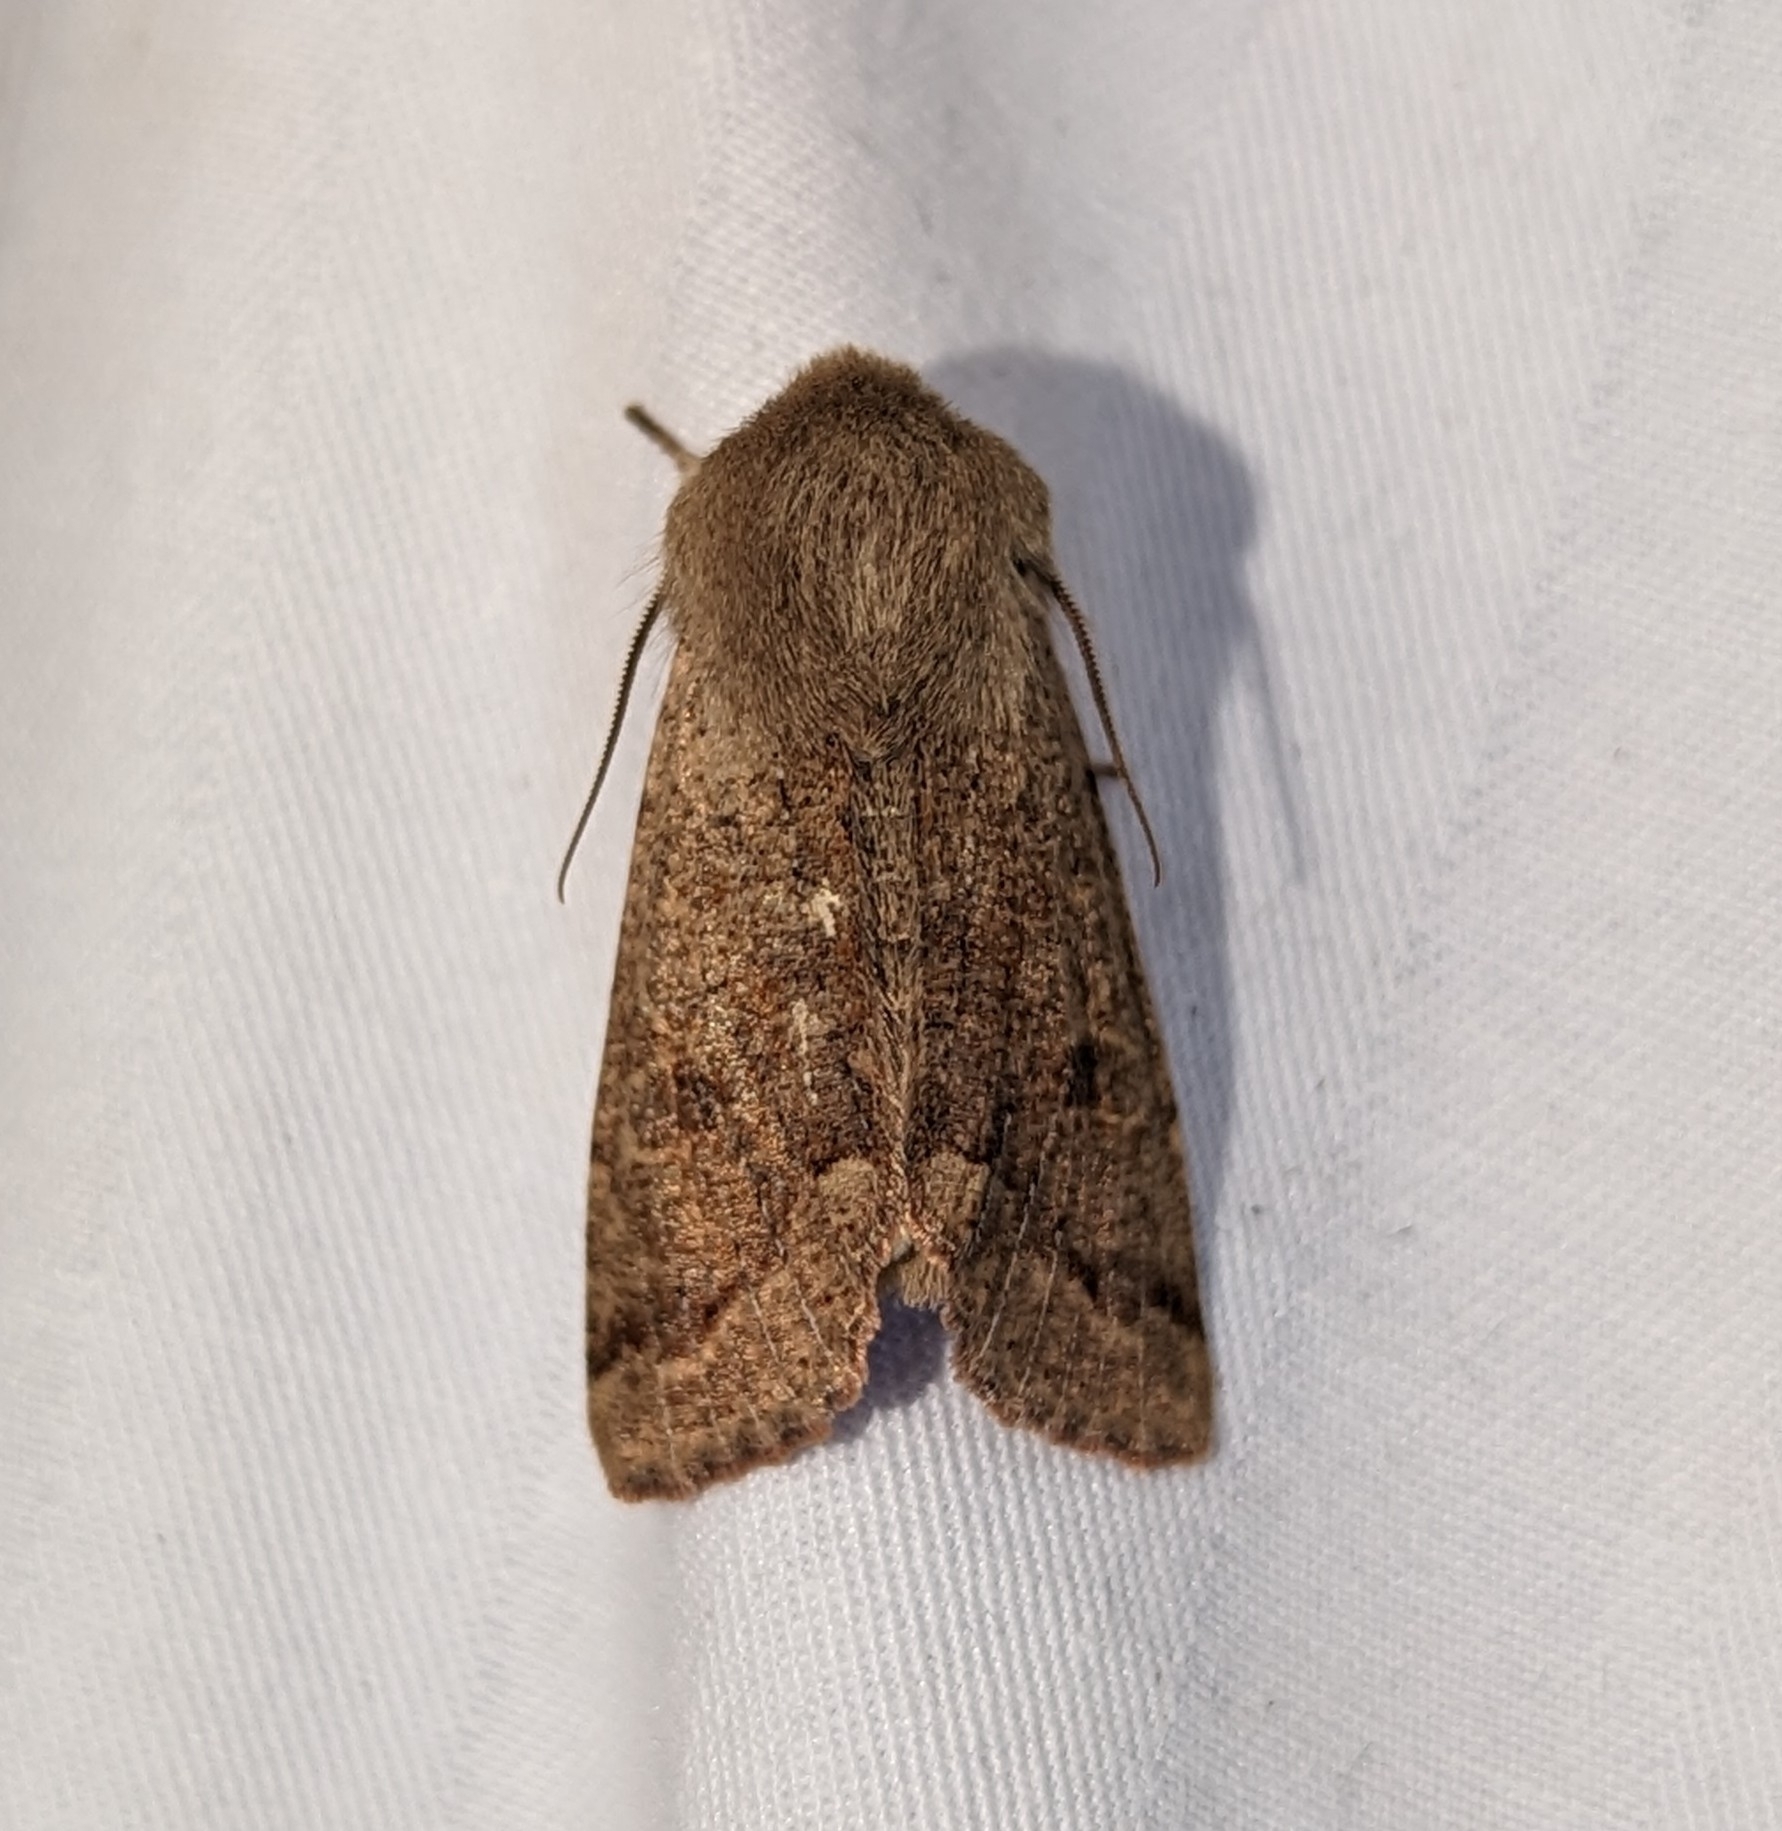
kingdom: Animalia
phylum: Arthropoda
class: Insecta
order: Lepidoptera
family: Noctuidae
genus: Orthosia
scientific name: Orthosia pacifica
